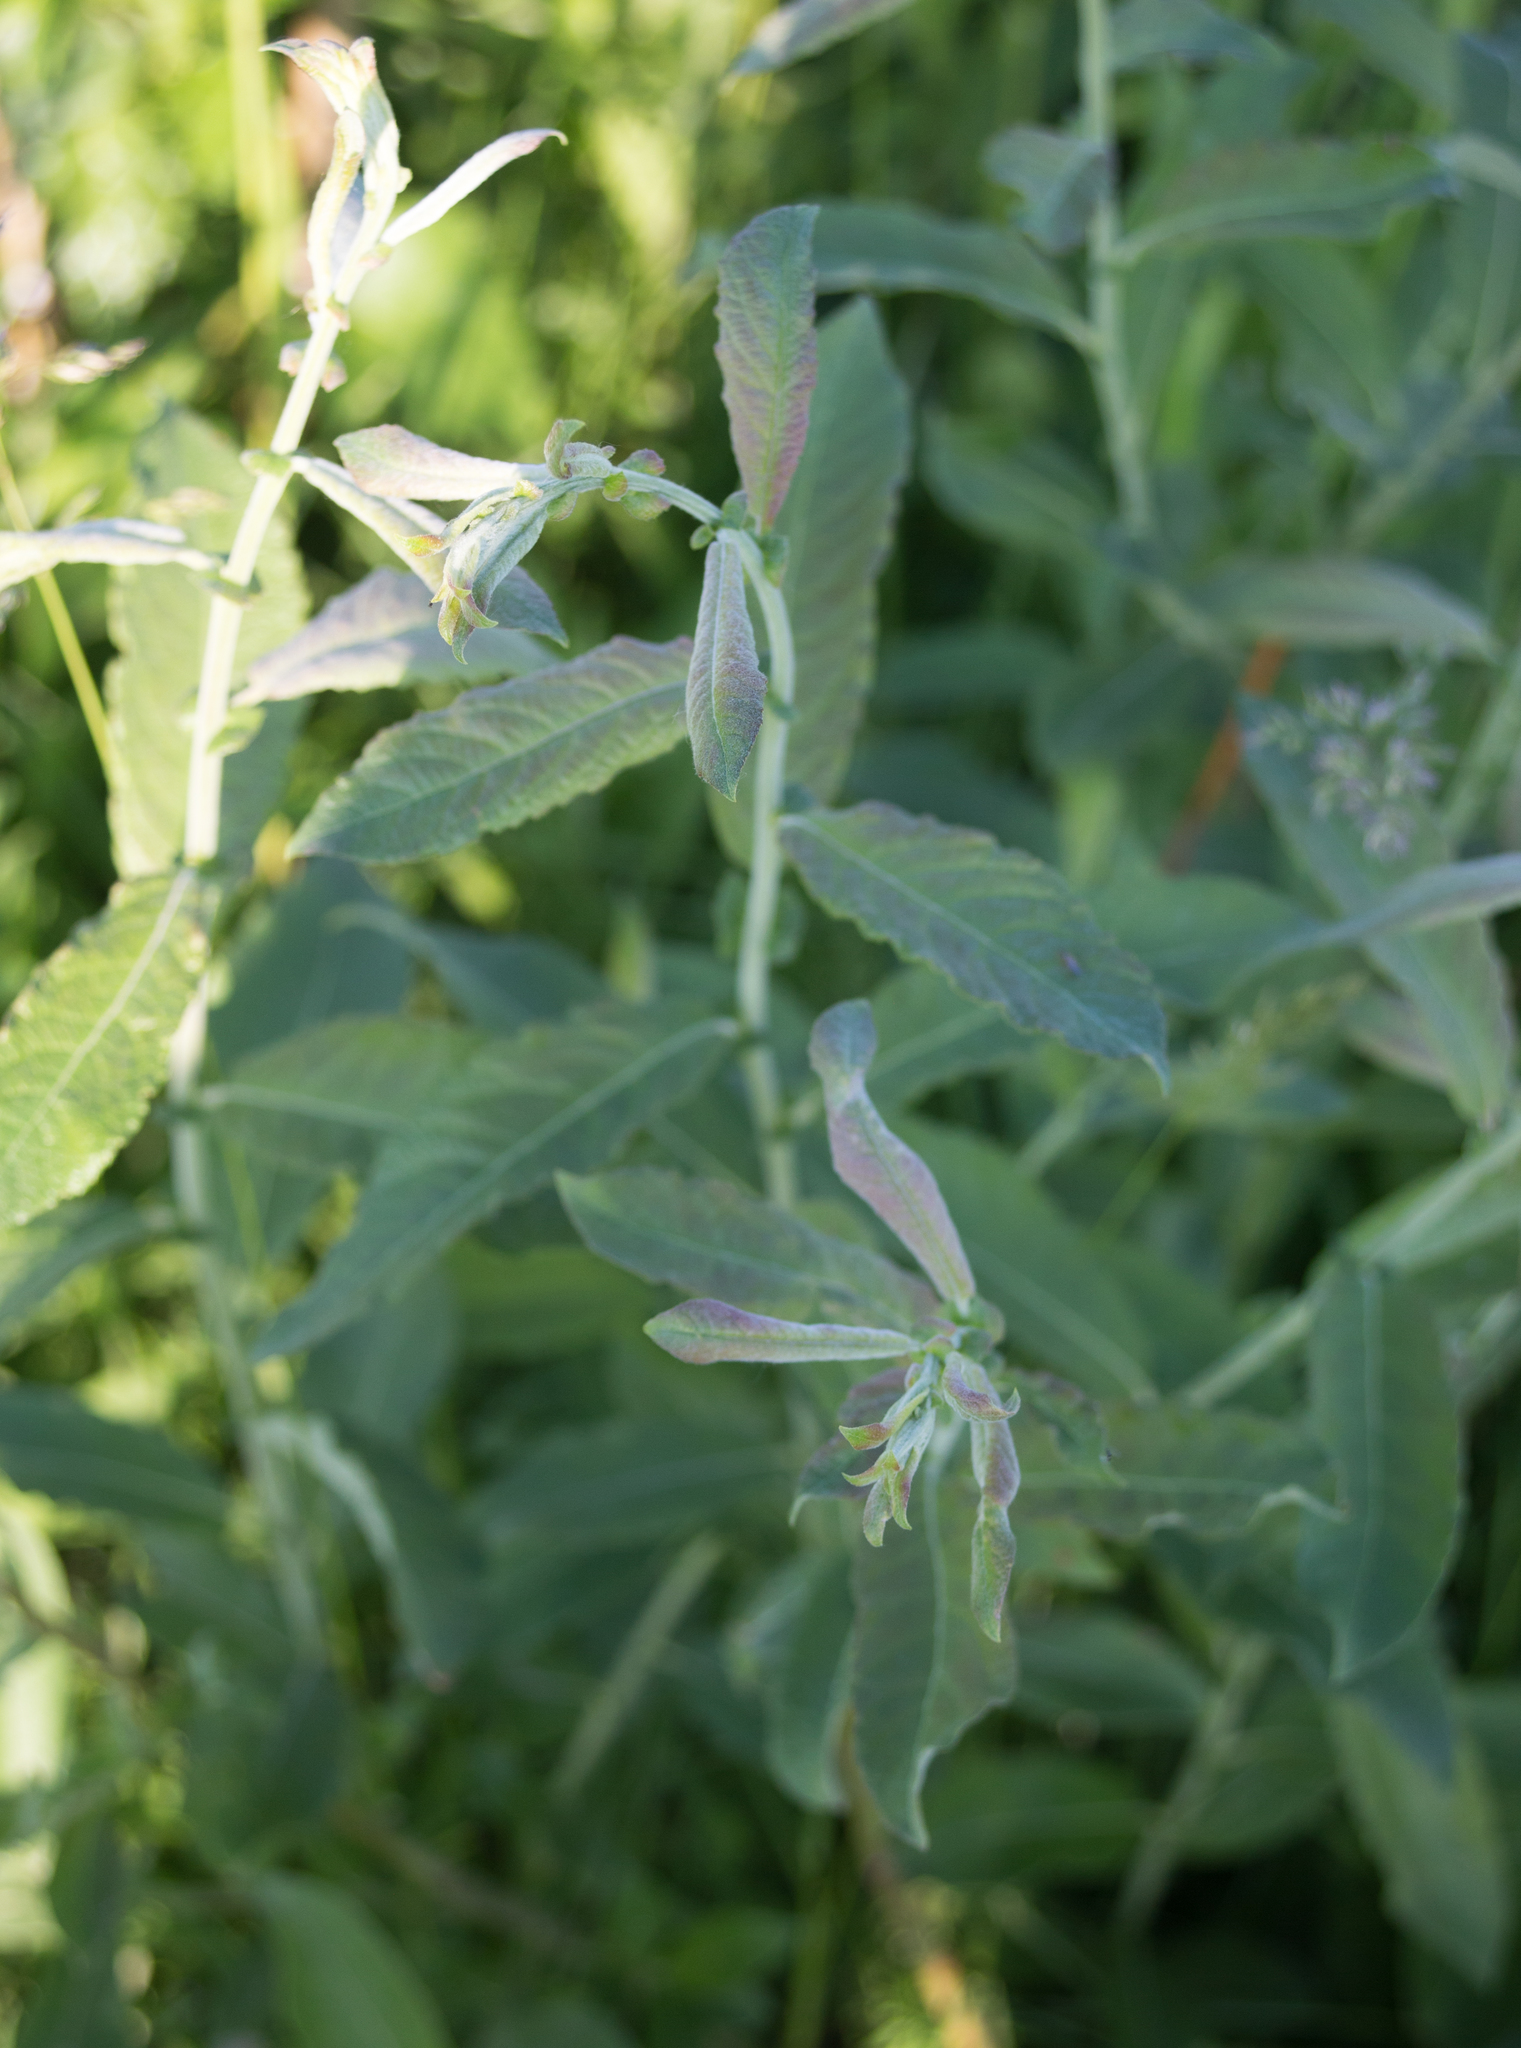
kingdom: Plantae
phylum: Tracheophyta
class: Magnoliopsida
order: Malpighiales
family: Salicaceae
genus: Salix
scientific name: Salix cinerea
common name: Common sallow
